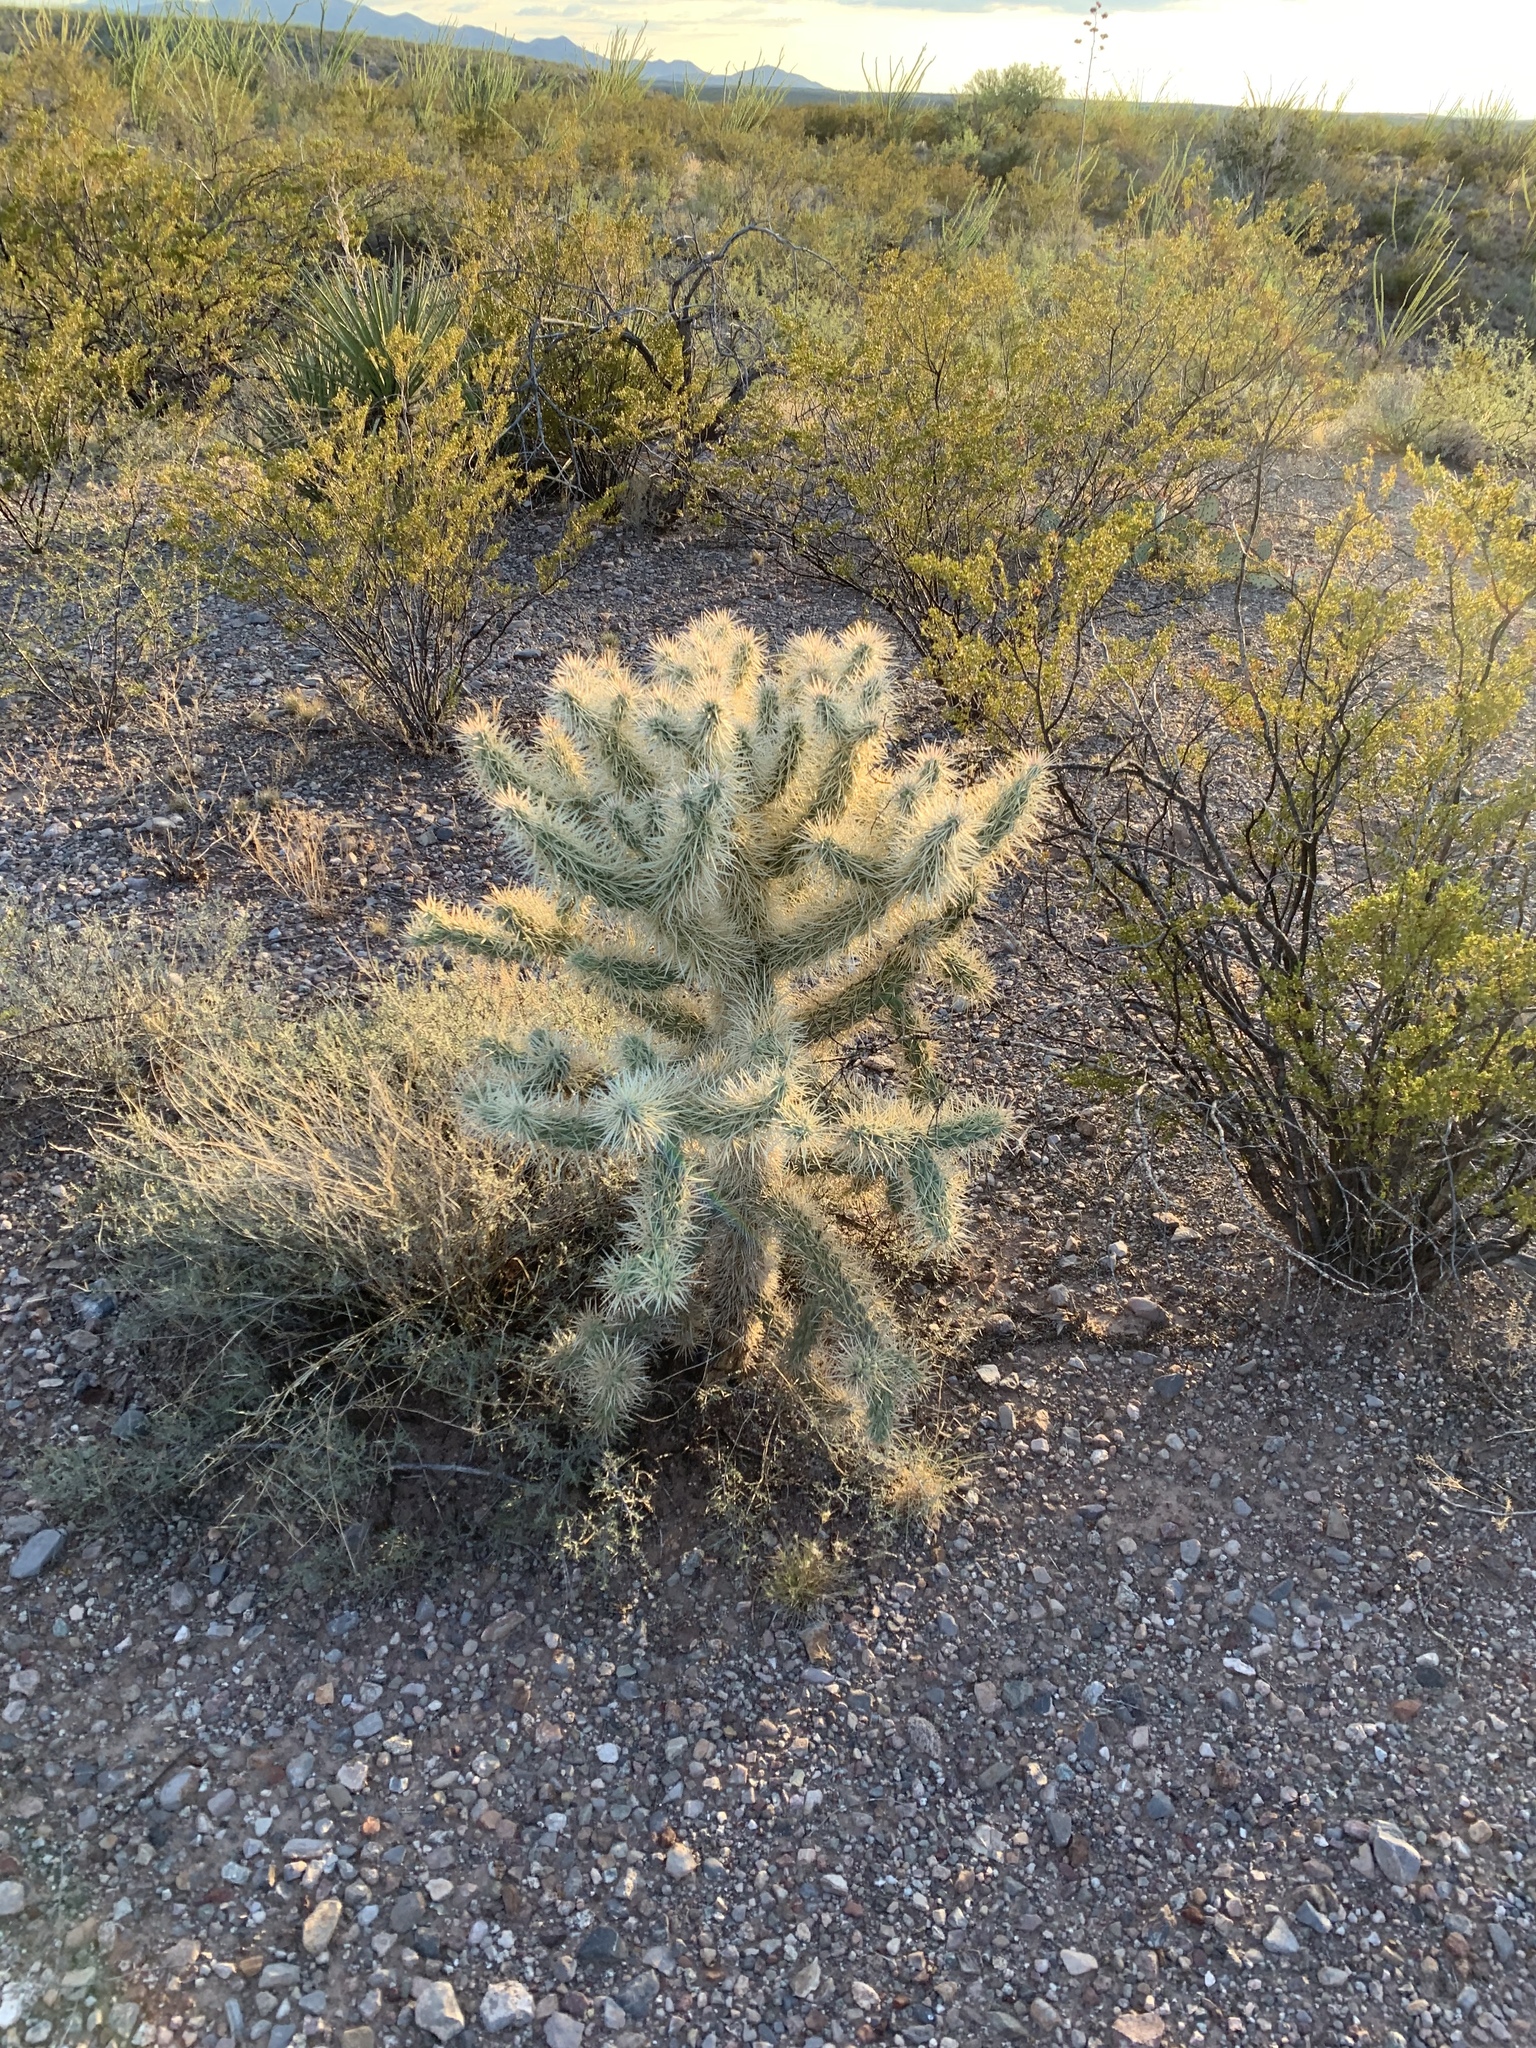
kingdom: Plantae
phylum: Tracheophyta
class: Magnoliopsida
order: Caryophyllales
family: Cactaceae
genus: Cylindropuntia
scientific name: Cylindropuntia fulgida
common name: Jumping cholla
